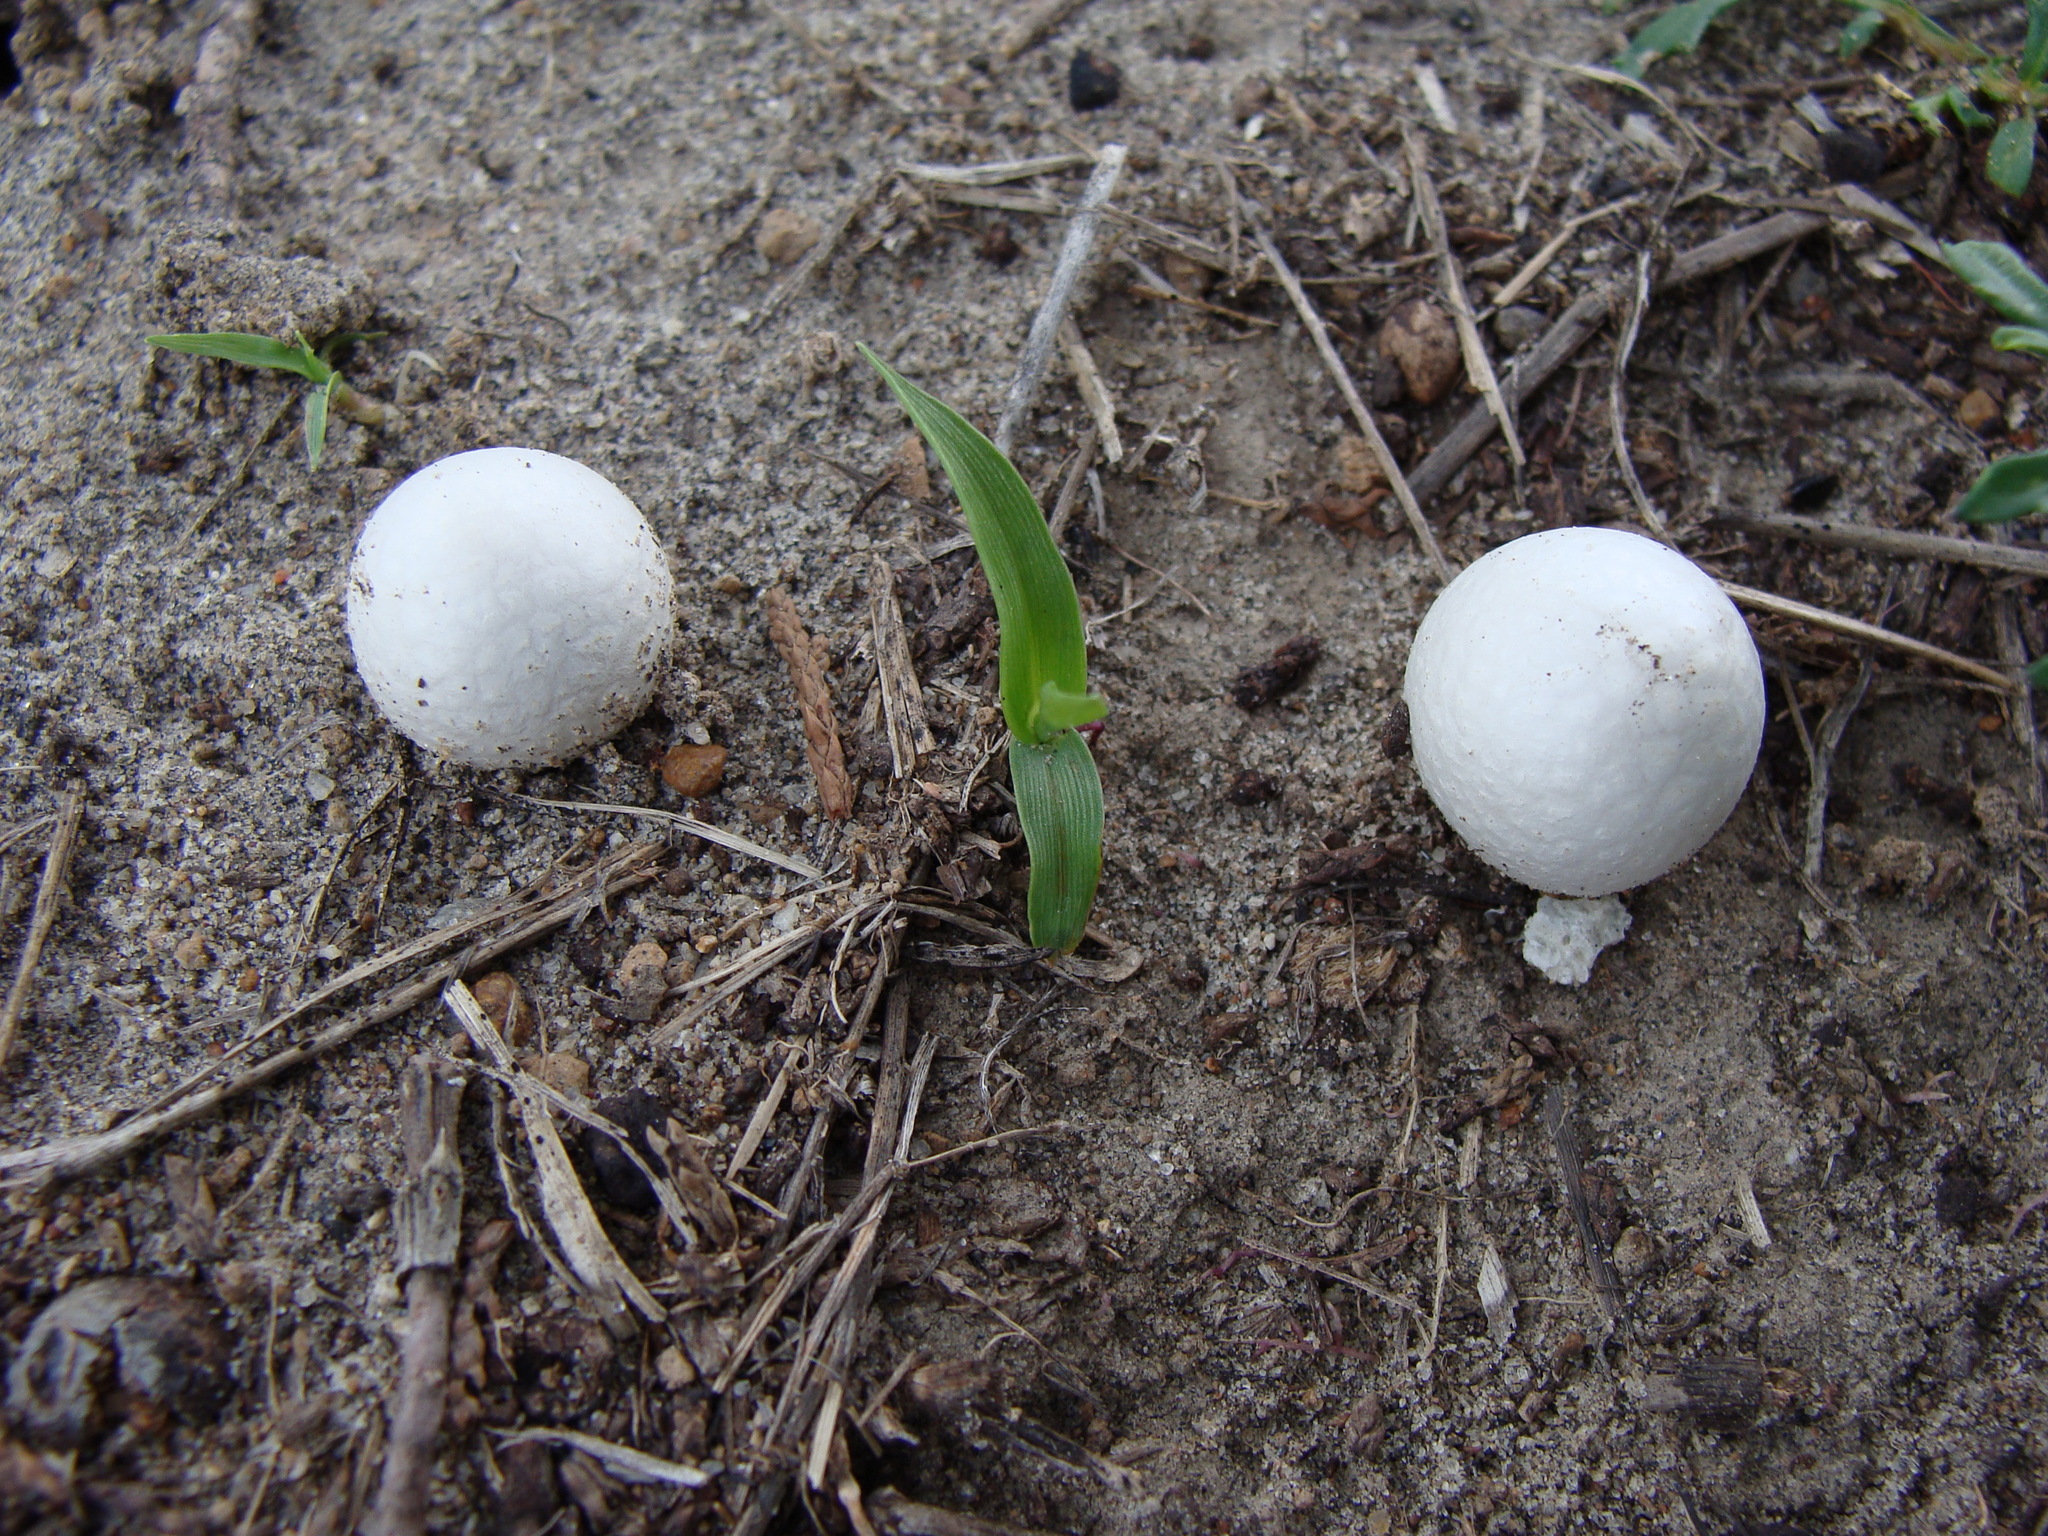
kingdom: Fungi
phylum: Basidiomycota
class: Agaricomycetes
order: Agaricales
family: Agaricaceae
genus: Agaricus
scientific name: Agaricus campestris
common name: Field mushroom
